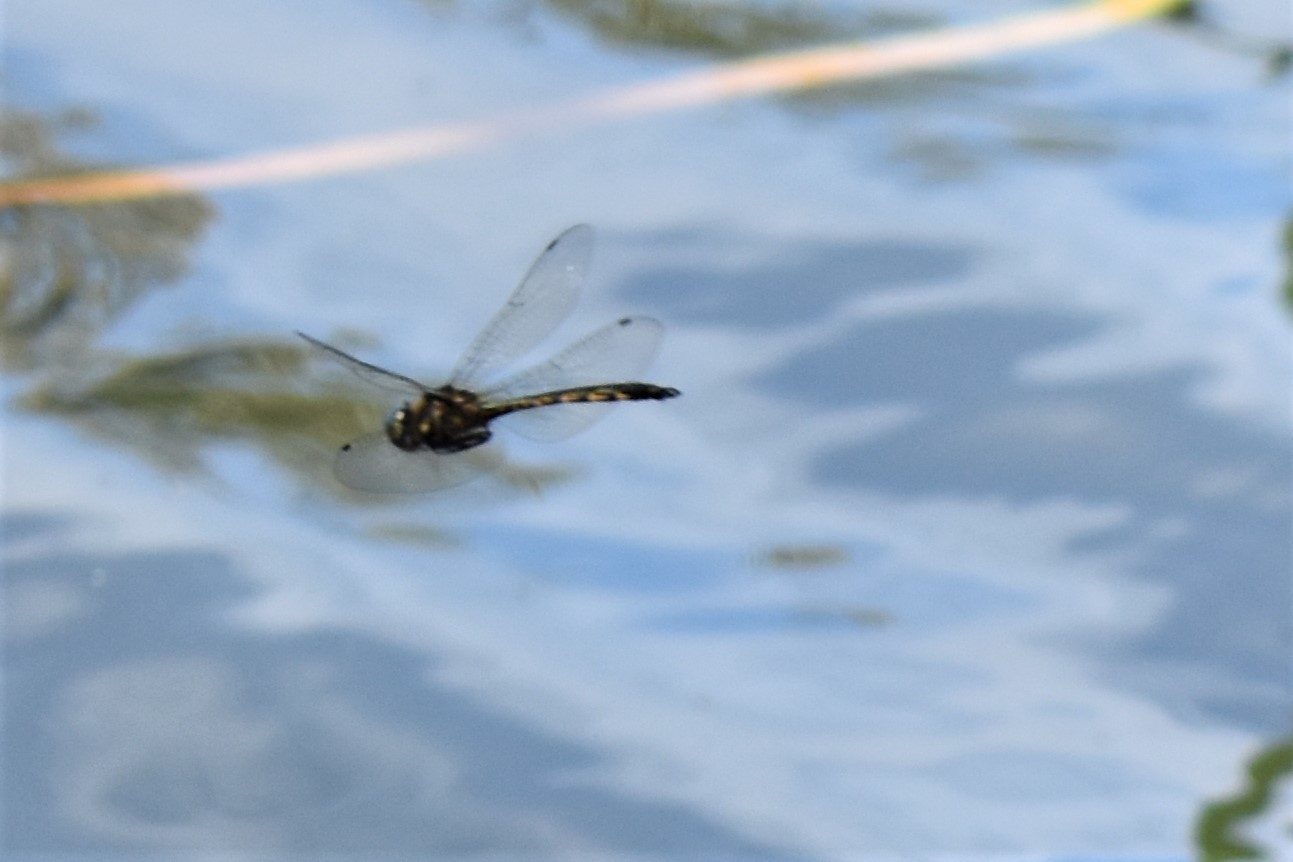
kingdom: Animalia
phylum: Arthropoda
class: Insecta
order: Odonata
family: Corduliidae
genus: Hemicordulia
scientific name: Hemicordulia armstrongi
